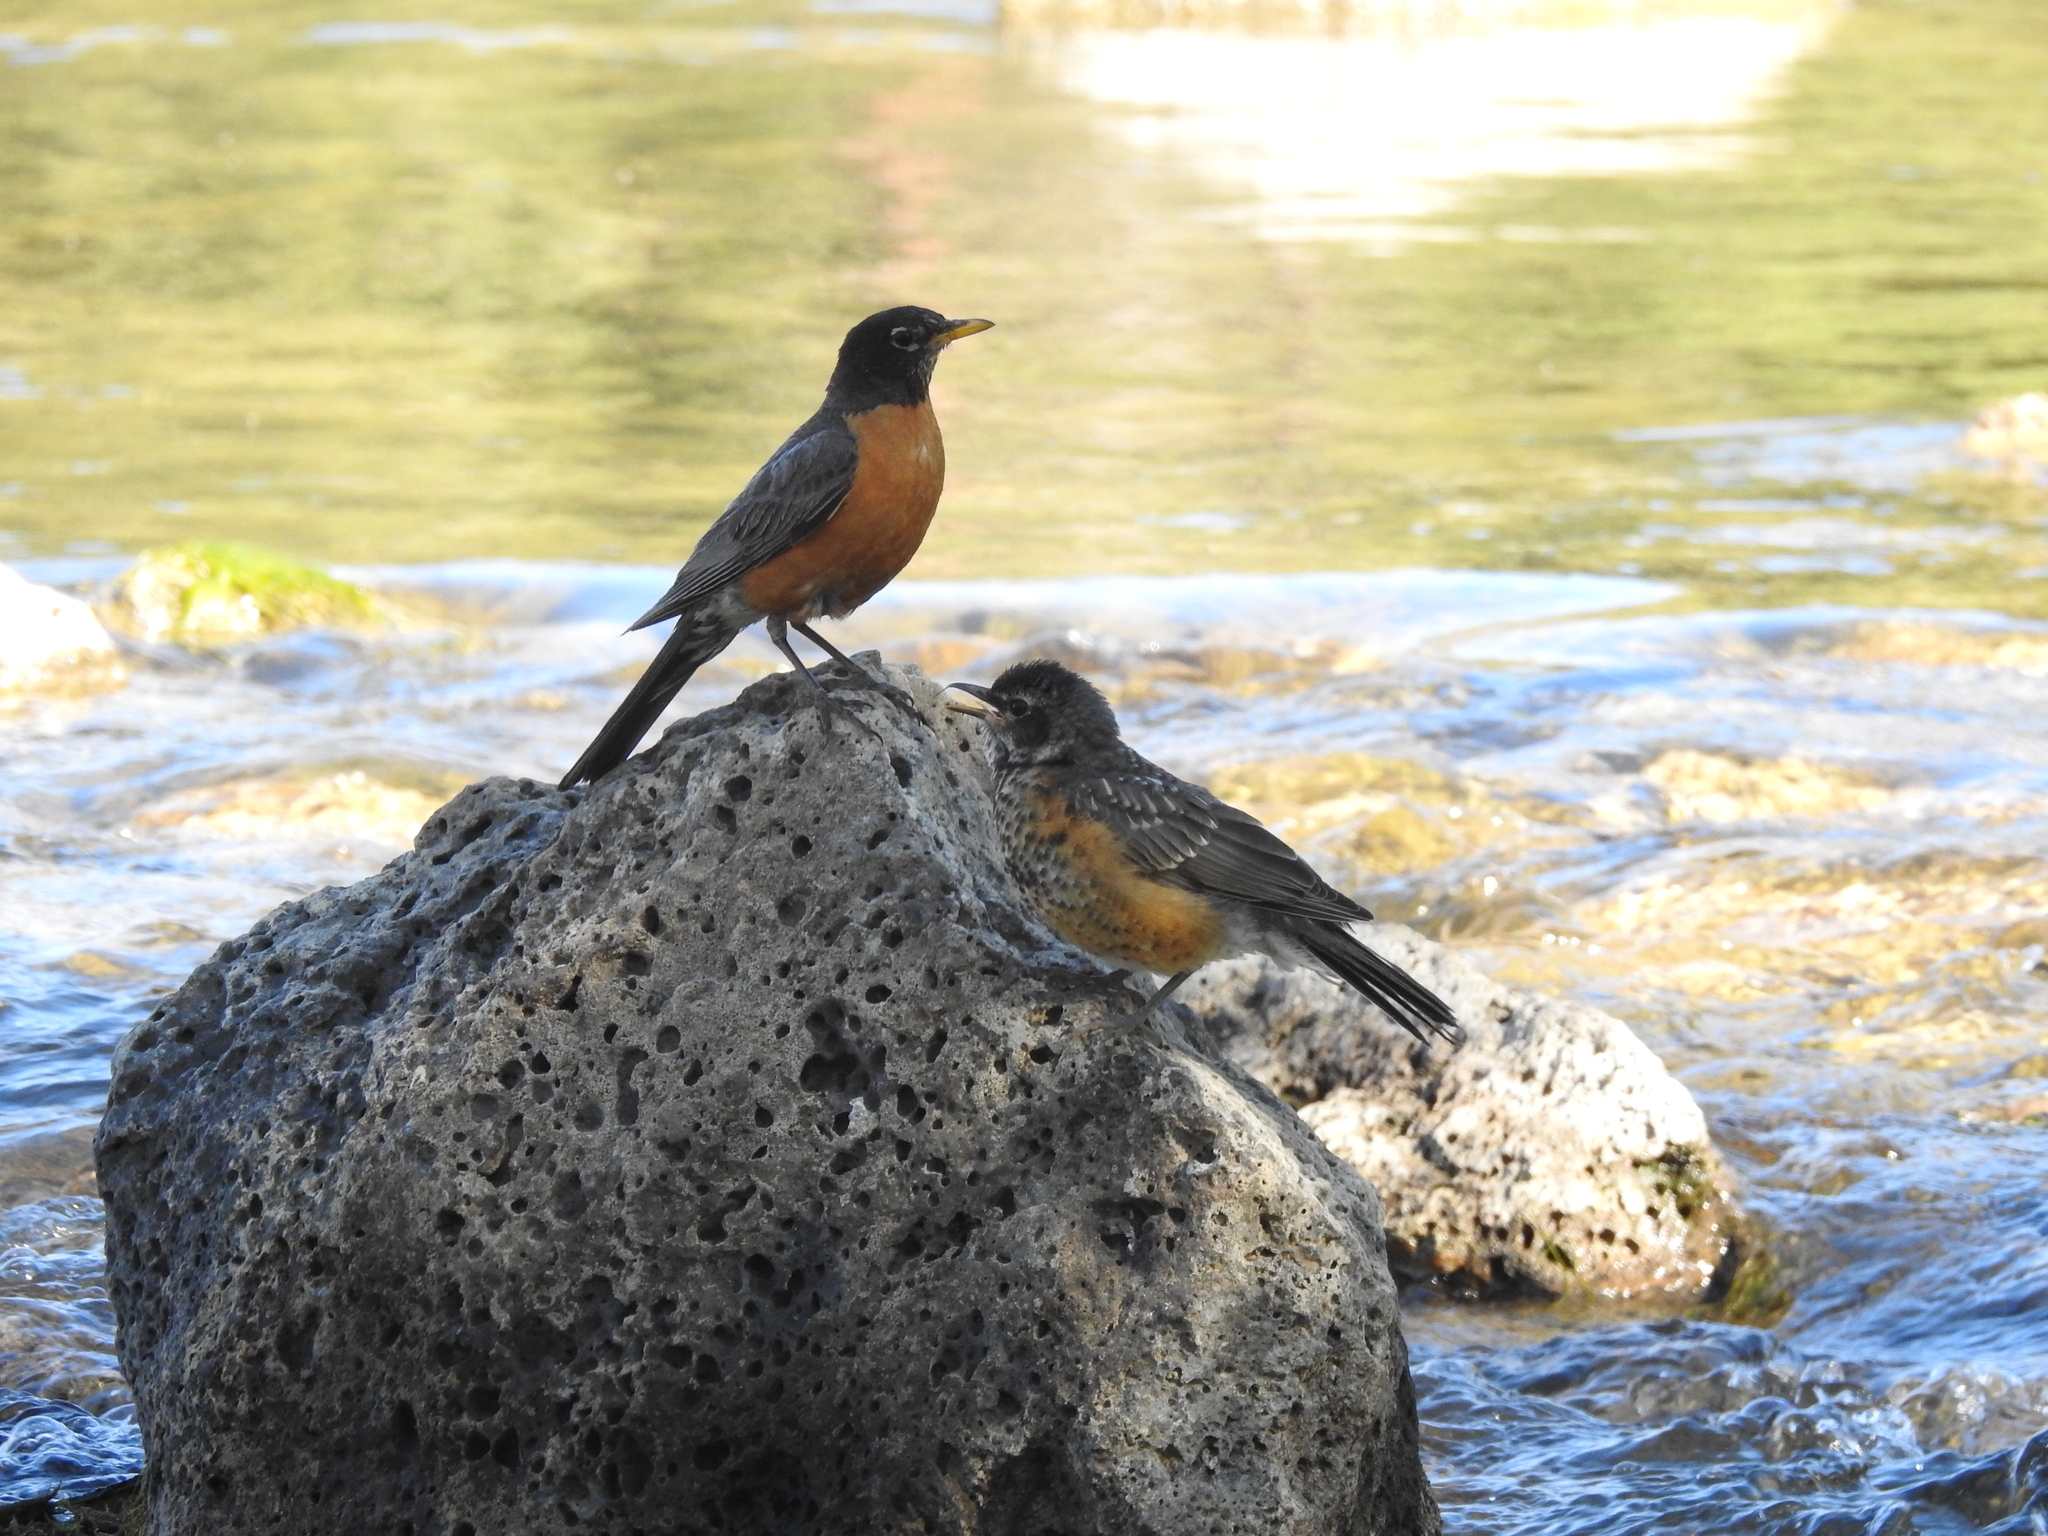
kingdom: Animalia
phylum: Chordata
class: Aves
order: Passeriformes
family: Turdidae
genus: Turdus
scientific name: Turdus migratorius
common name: American robin
